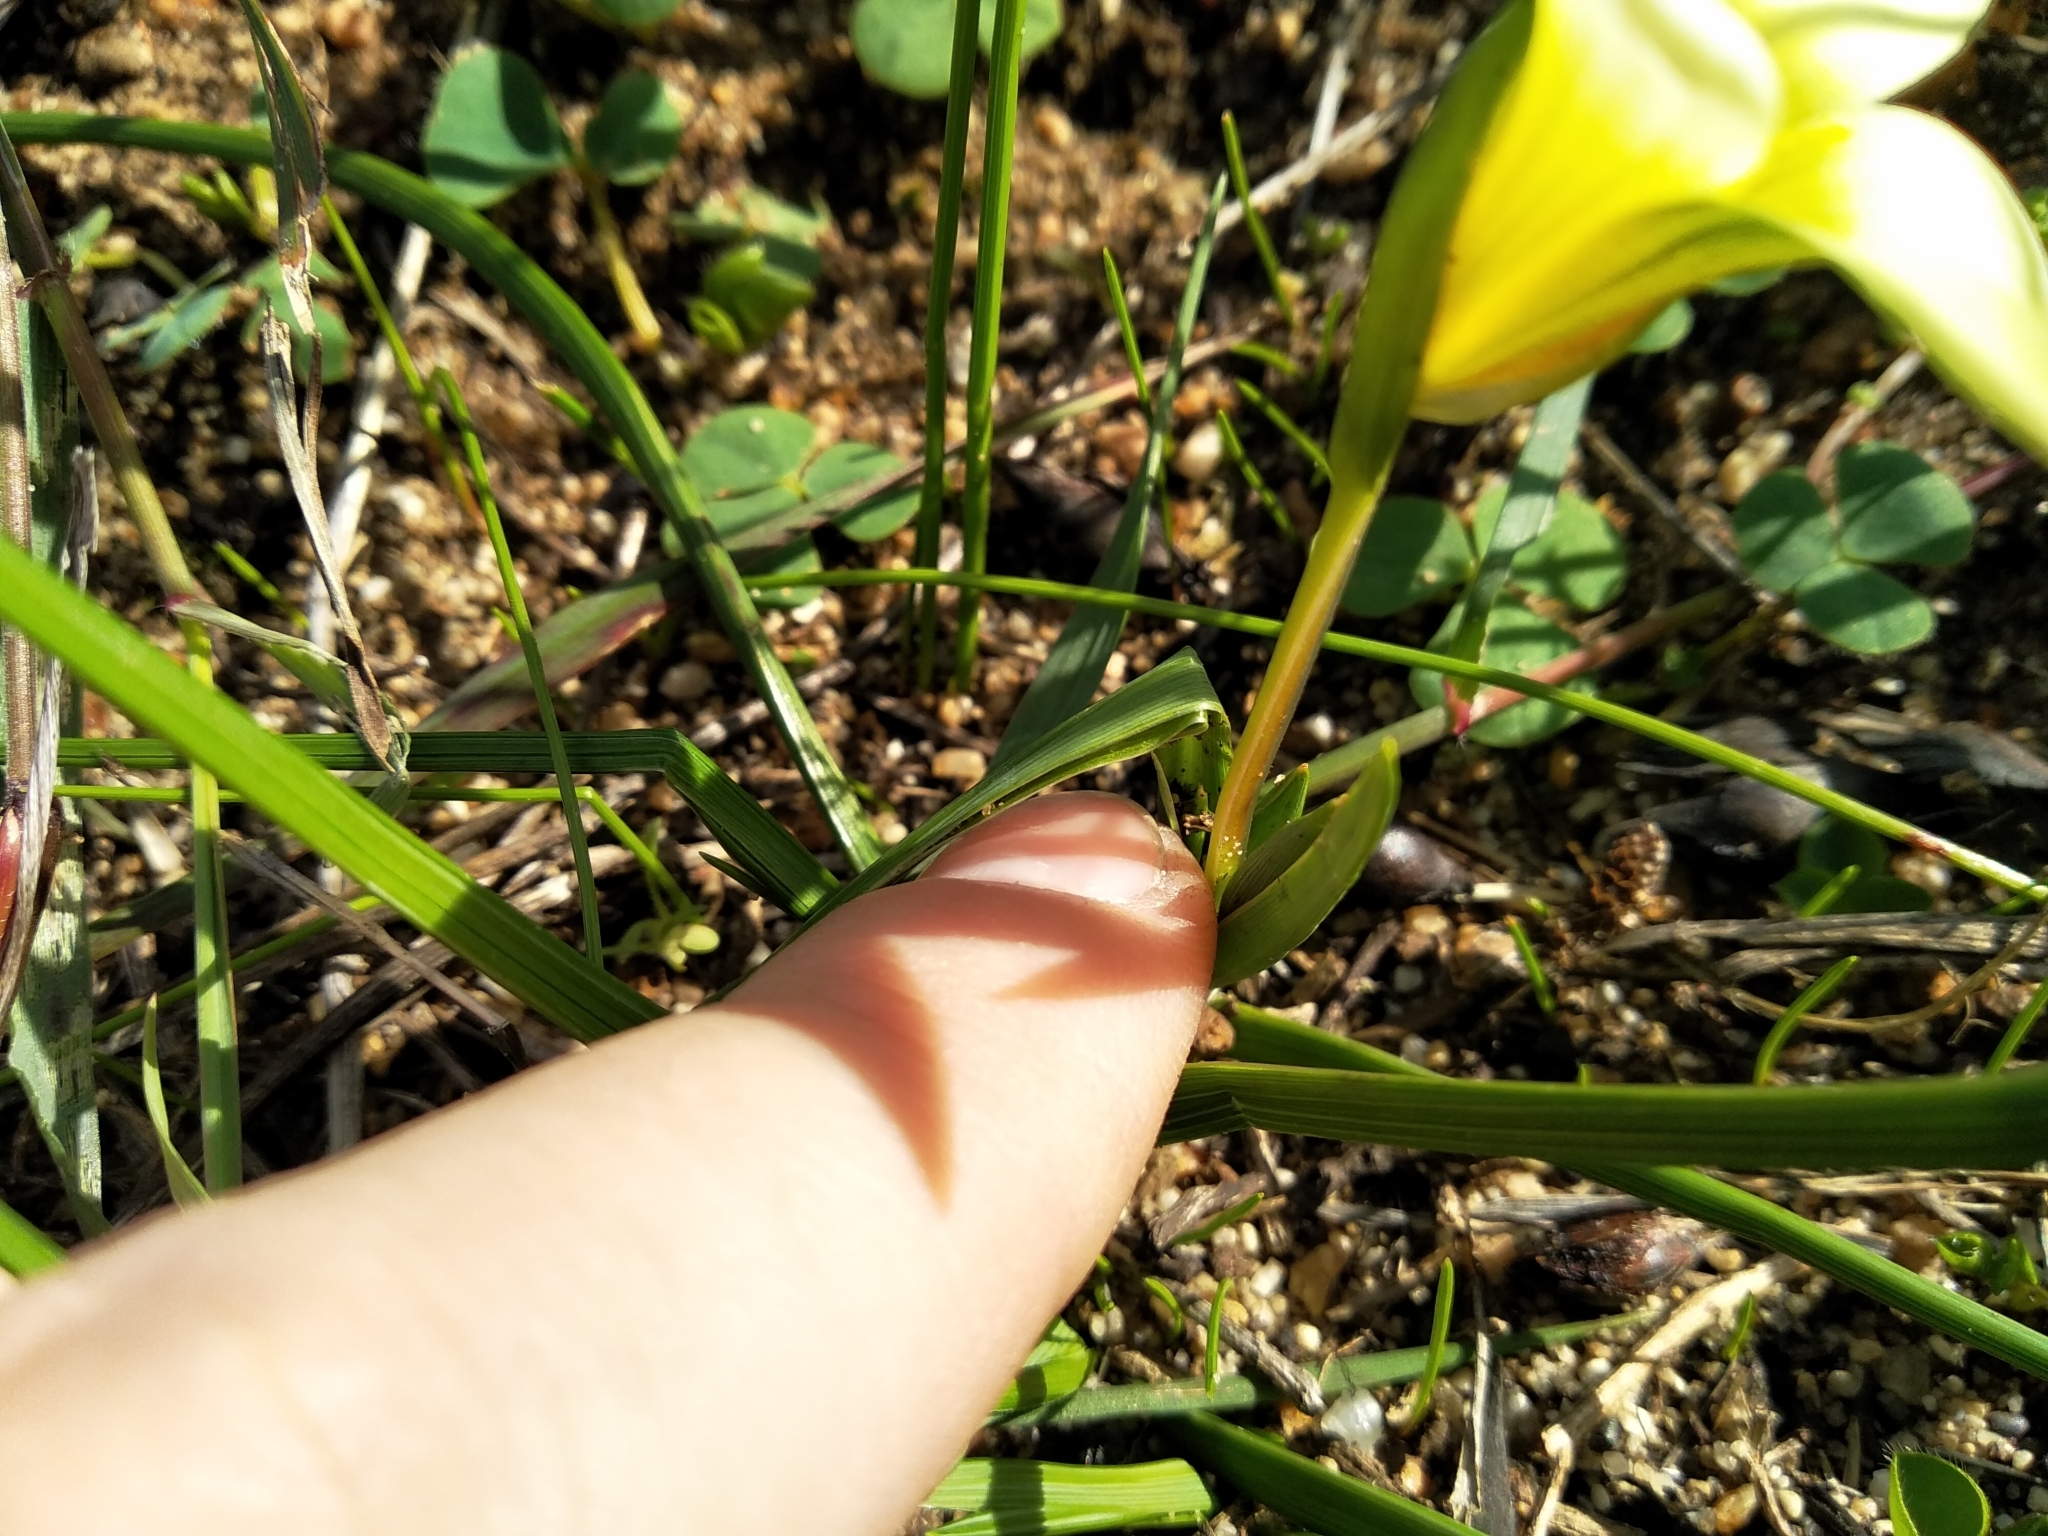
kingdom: Plantae
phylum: Tracheophyta
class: Liliopsida
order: Asparagales
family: Iridaceae
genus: Romulea
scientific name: Romulea flava
